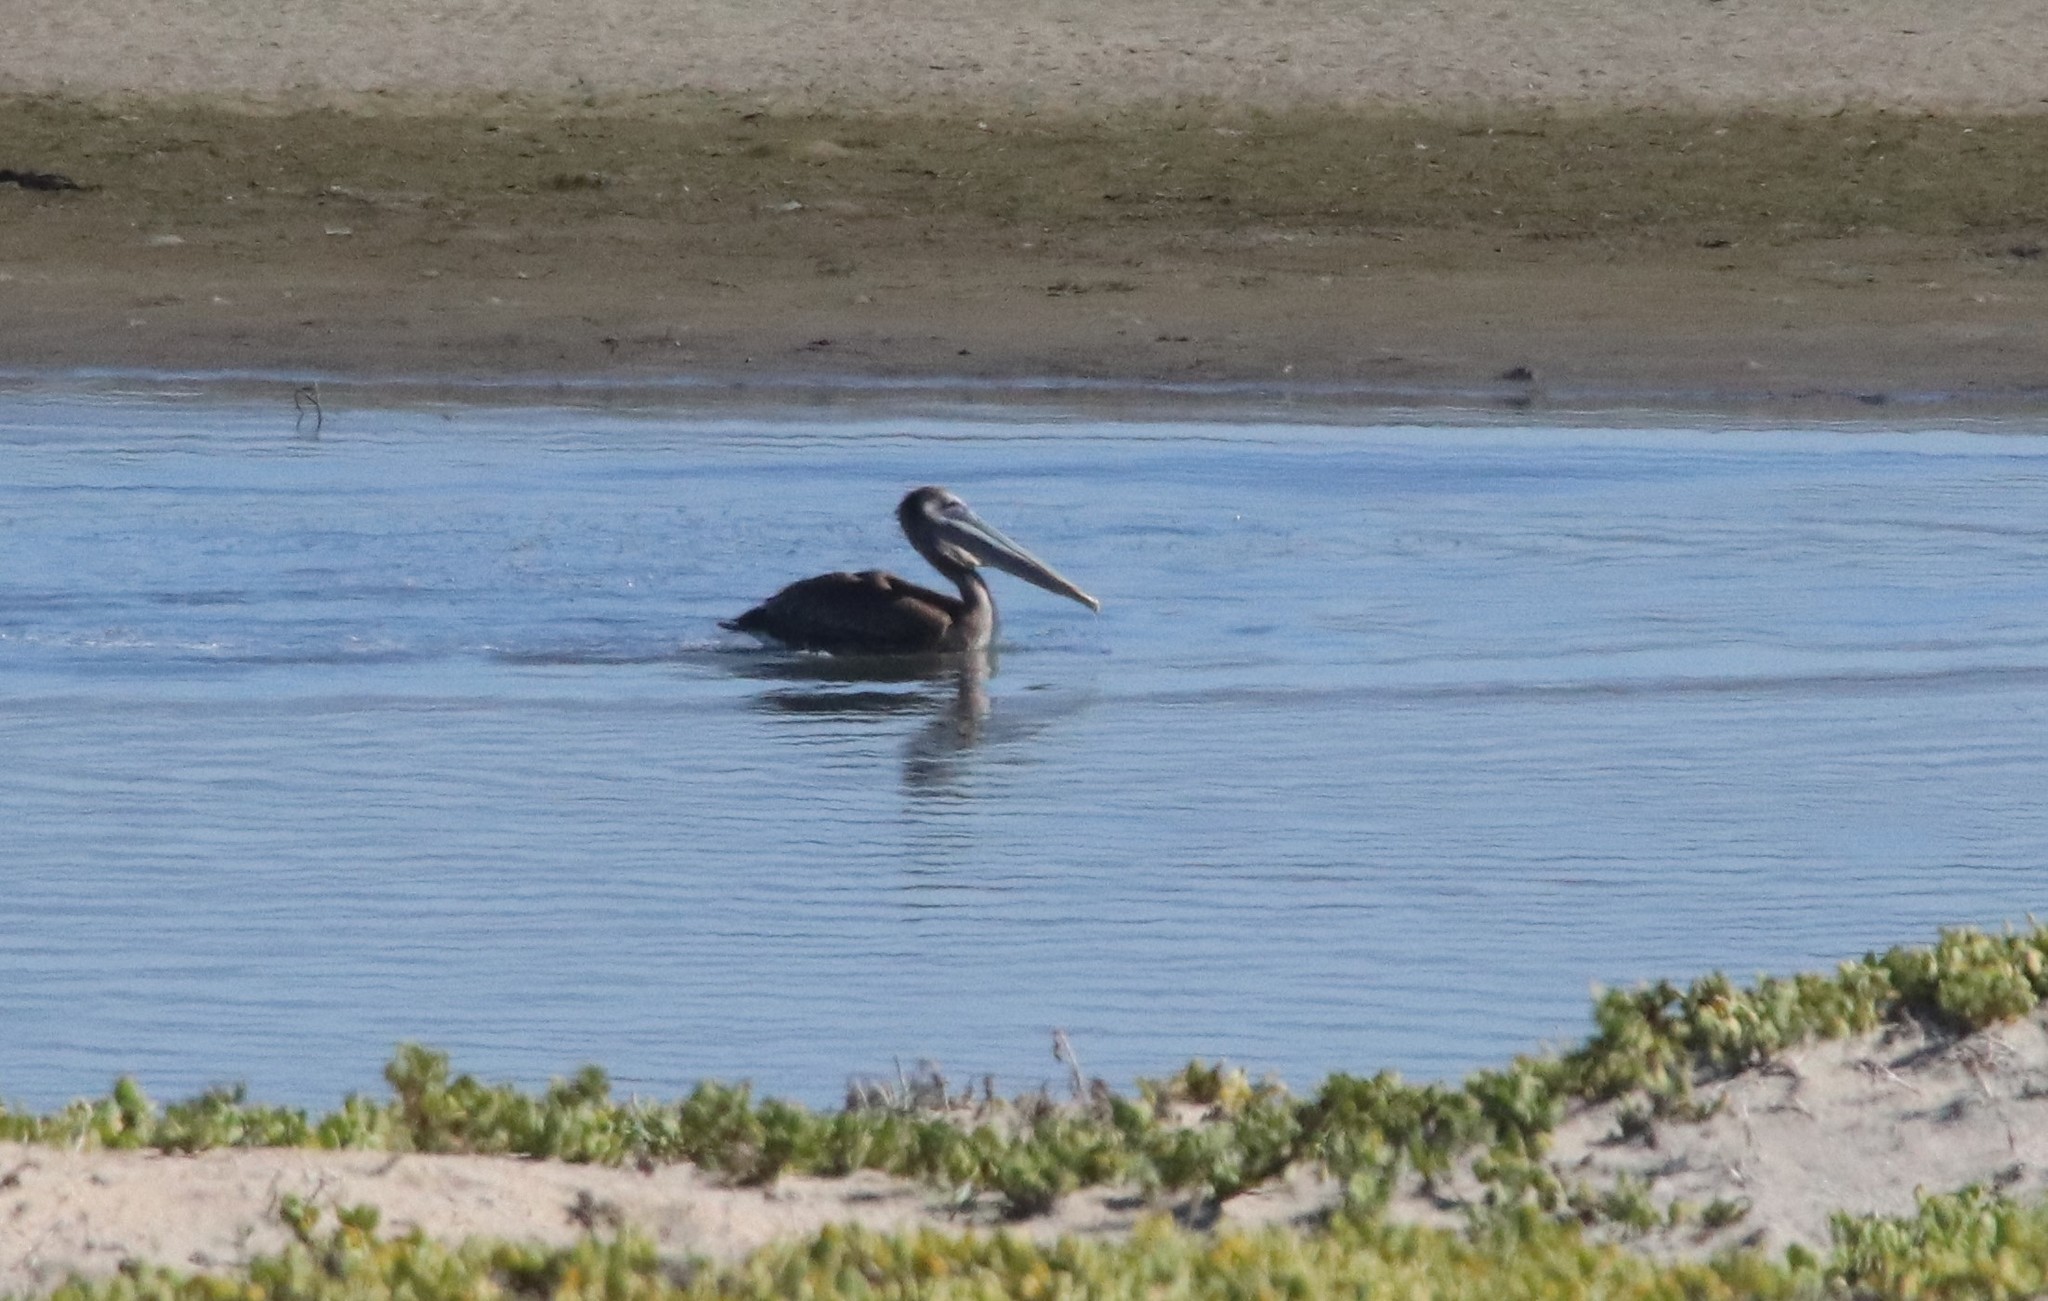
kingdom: Animalia
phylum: Chordata
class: Aves
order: Pelecaniformes
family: Pelecanidae
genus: Pelecanus
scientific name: Pelecanus occidentalis
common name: Brown pelican
